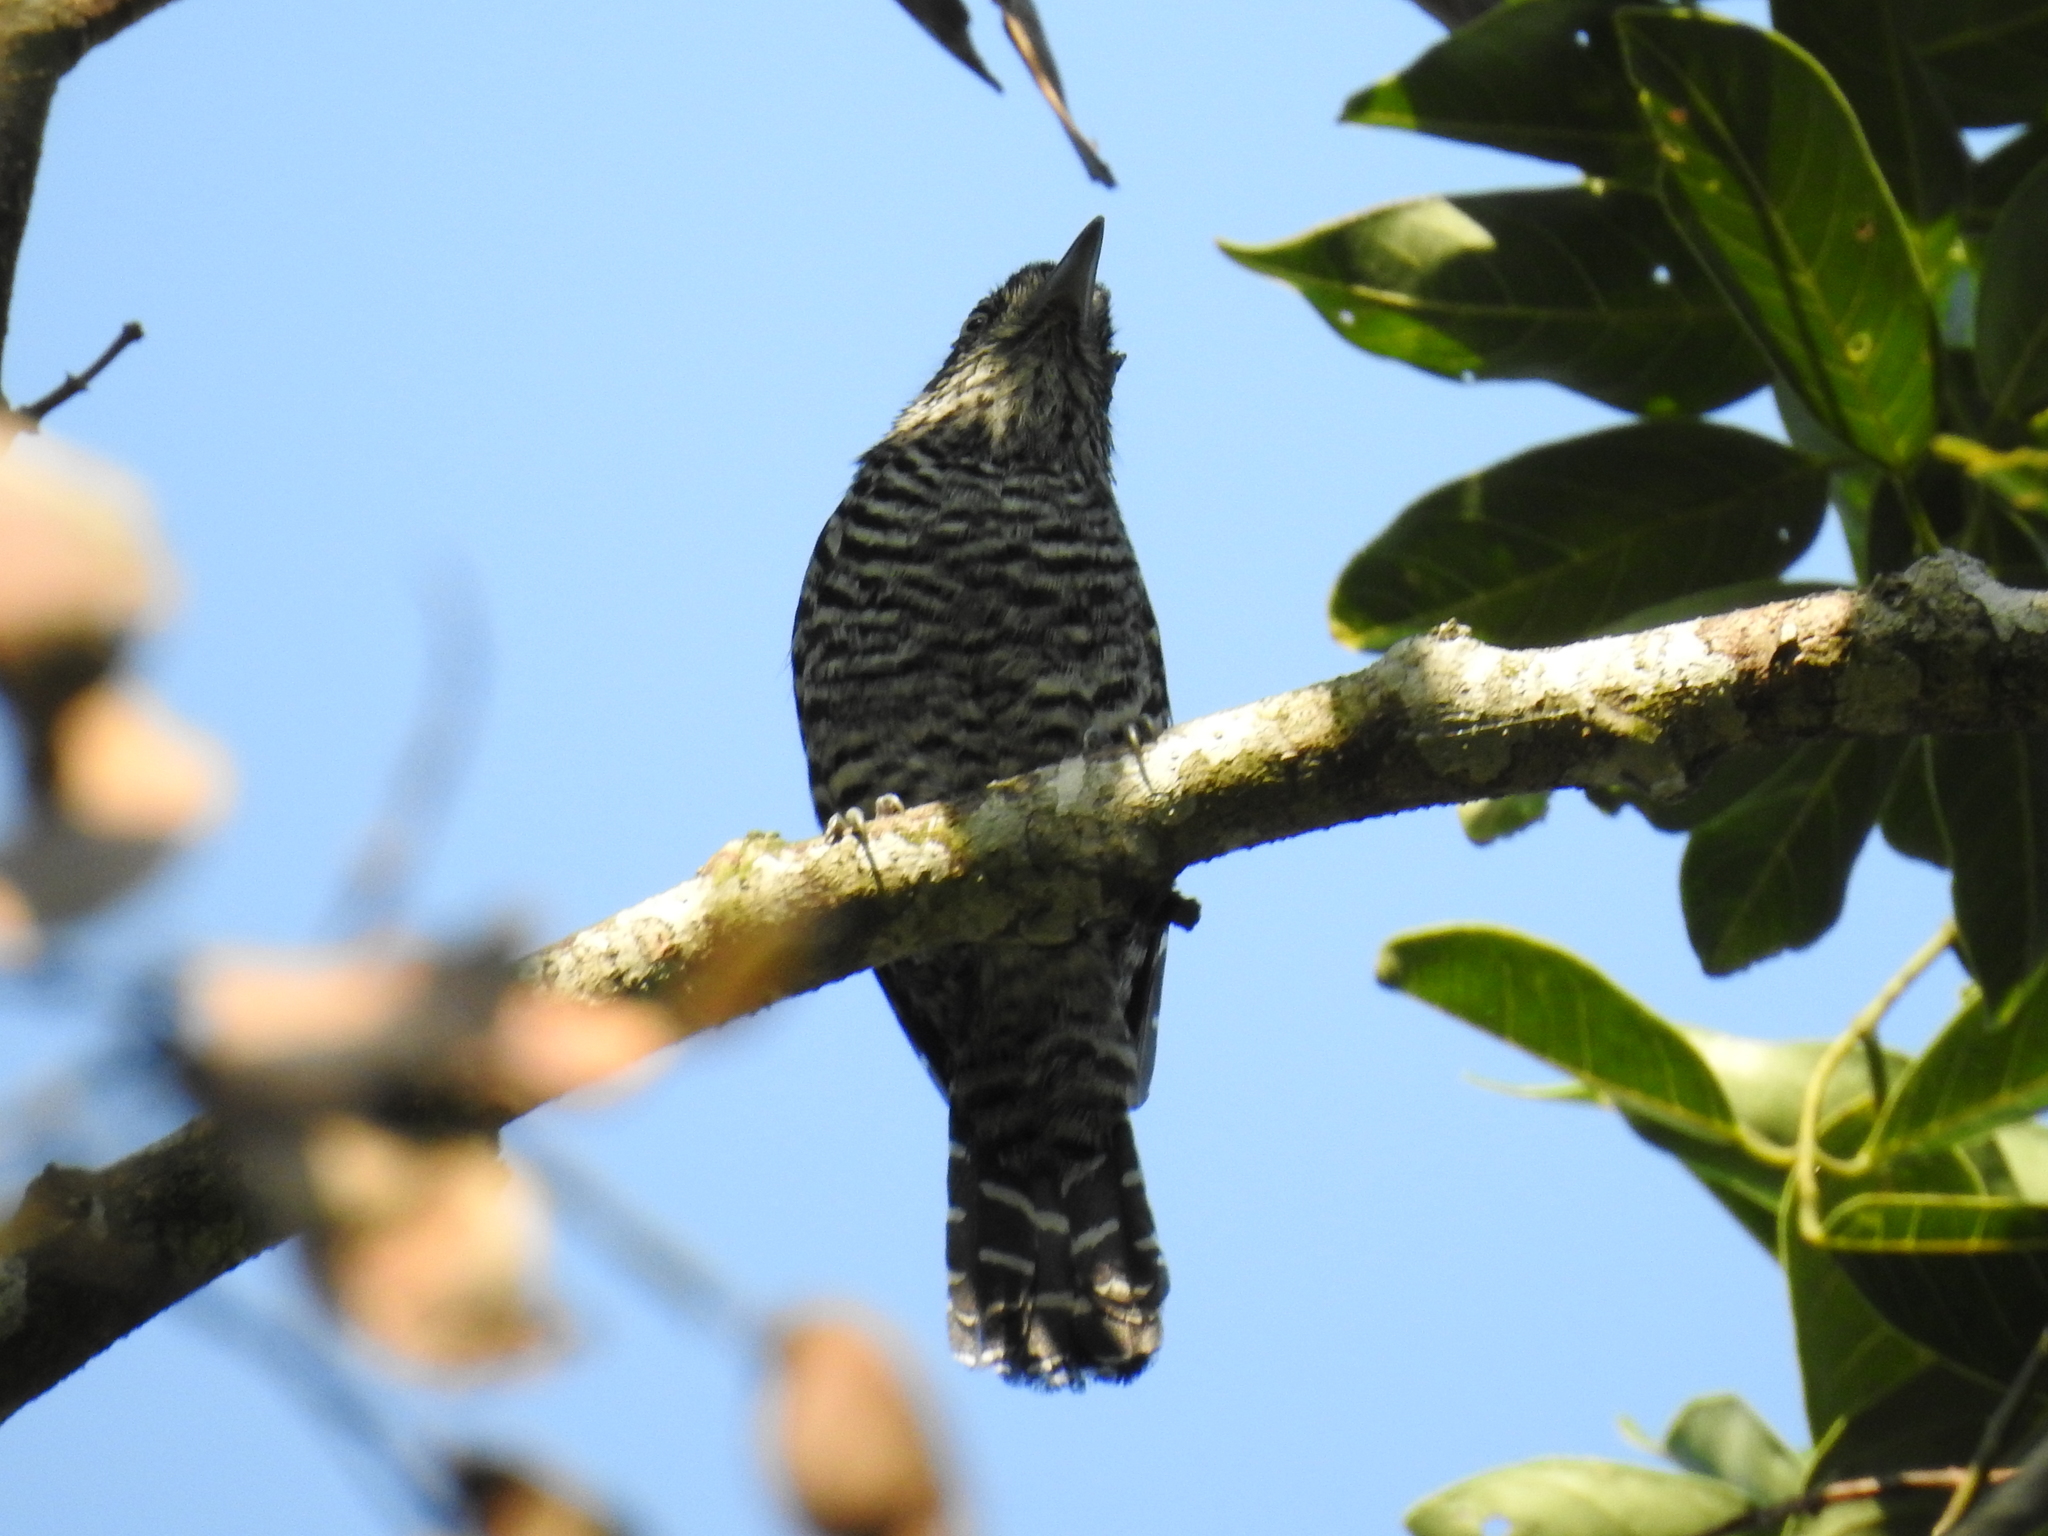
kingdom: Animalia
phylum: Chordata
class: Aves
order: Passeriformes
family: Thamnophilidae
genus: Thamnophilus
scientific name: Thamnophilus doliatus
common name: Barred antshrike
